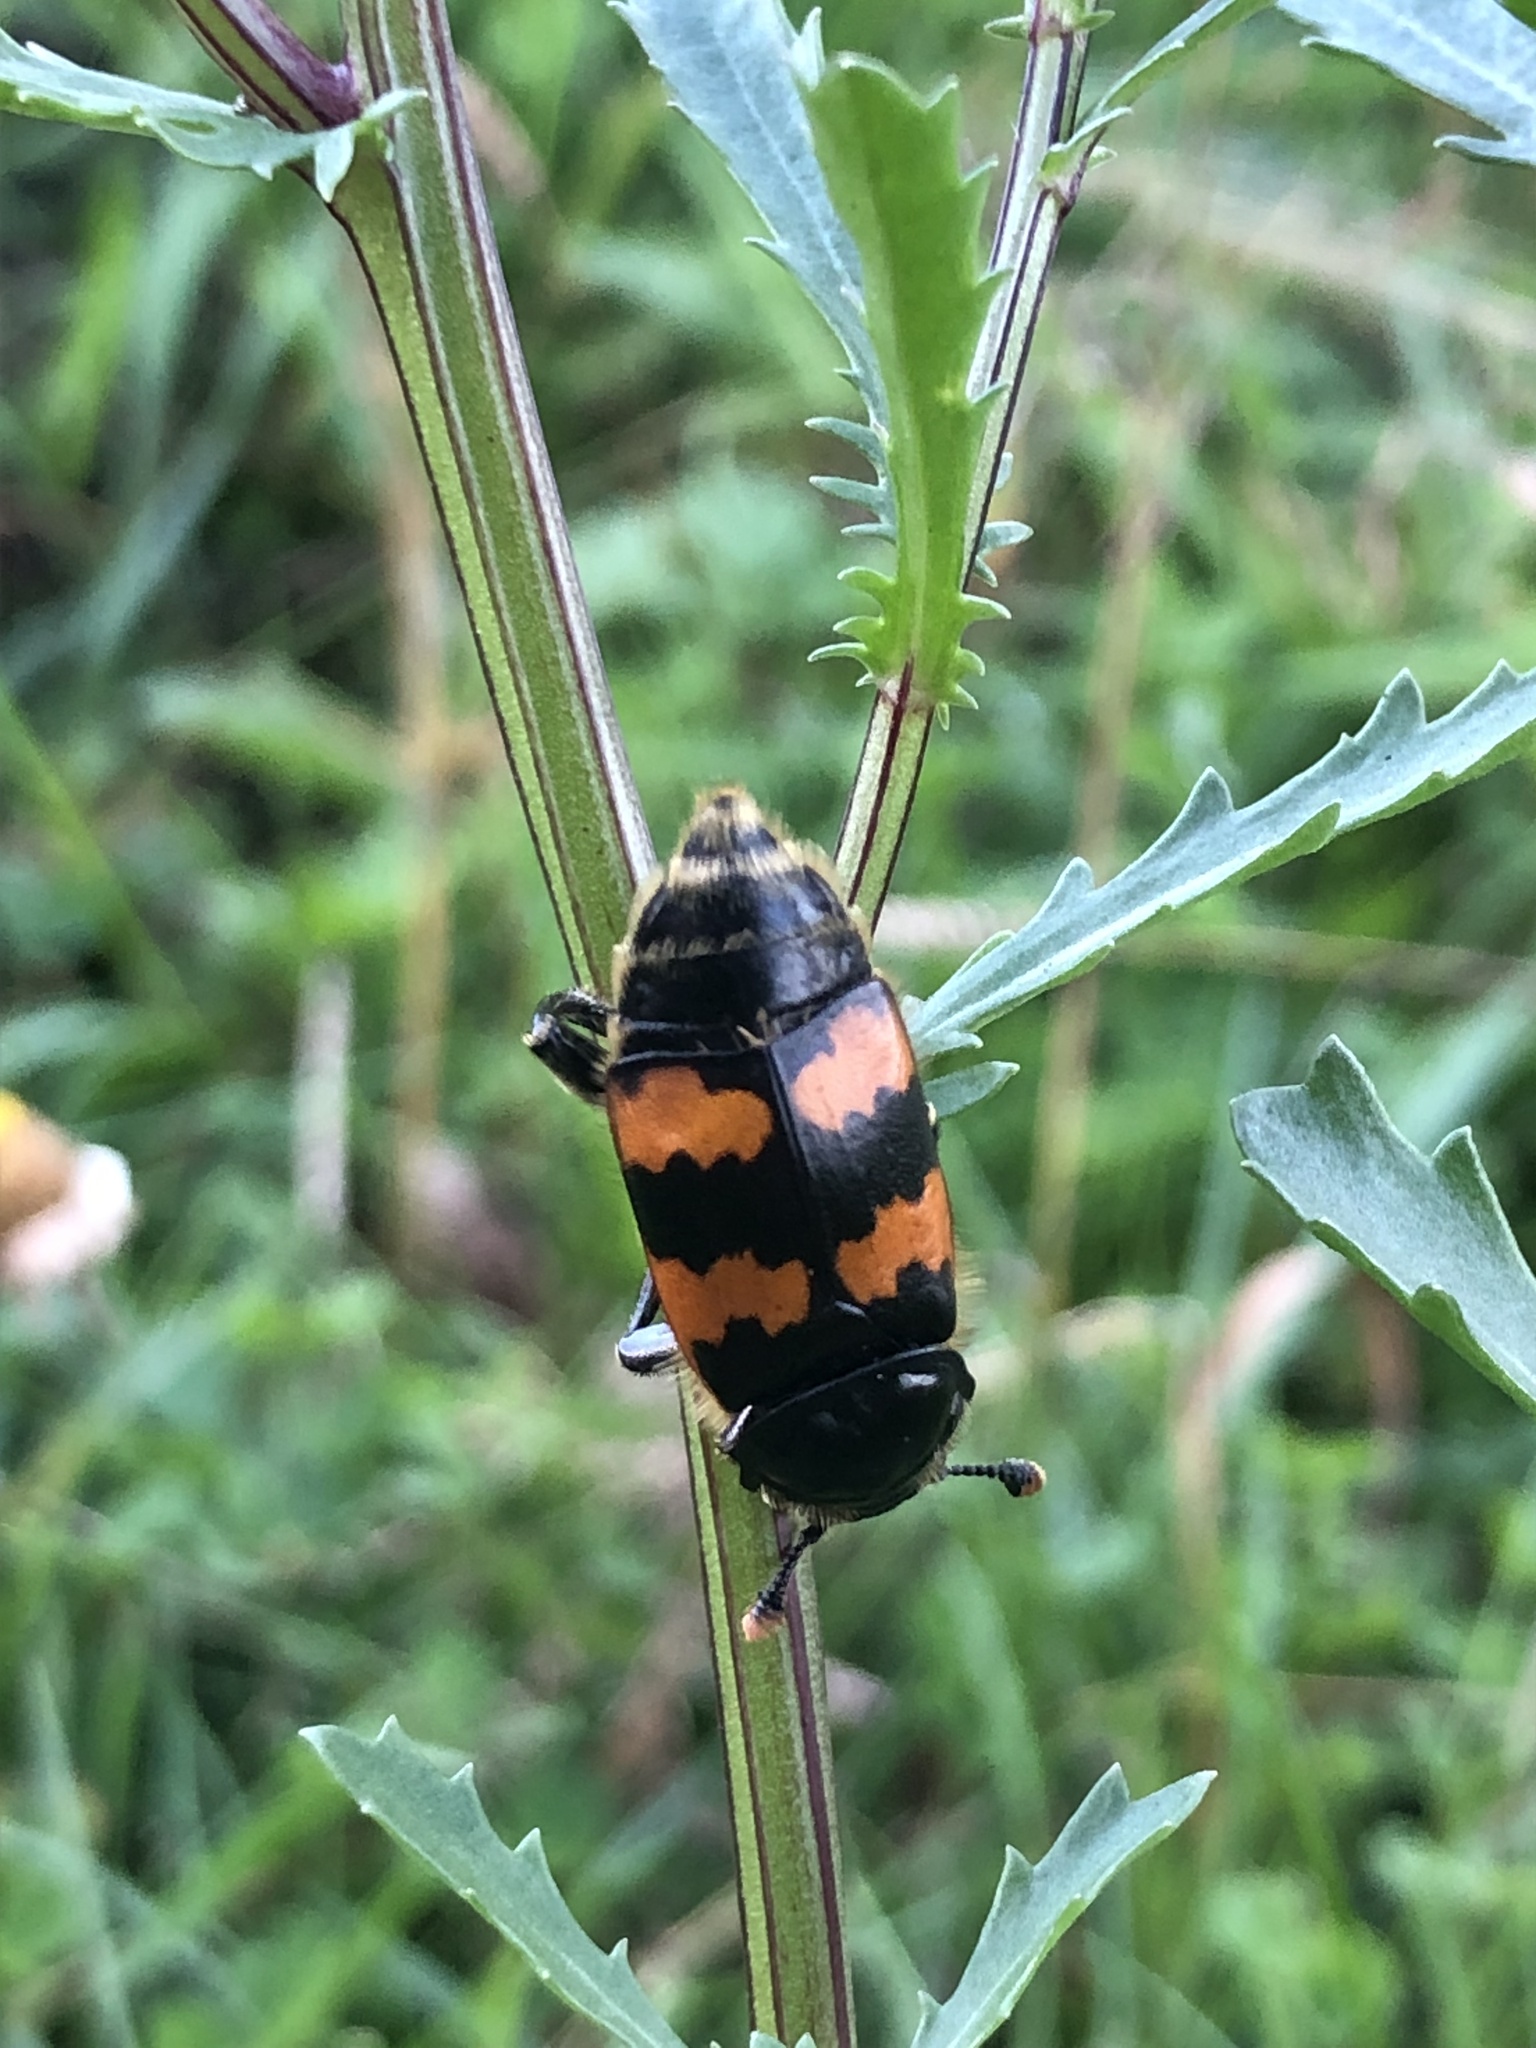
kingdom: Animalia
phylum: Arthropoda
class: Insecta
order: Coleoptera
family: Staphylinidae
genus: Nicrophorus
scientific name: Nicrophorus vespillo
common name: Common burying beetle
